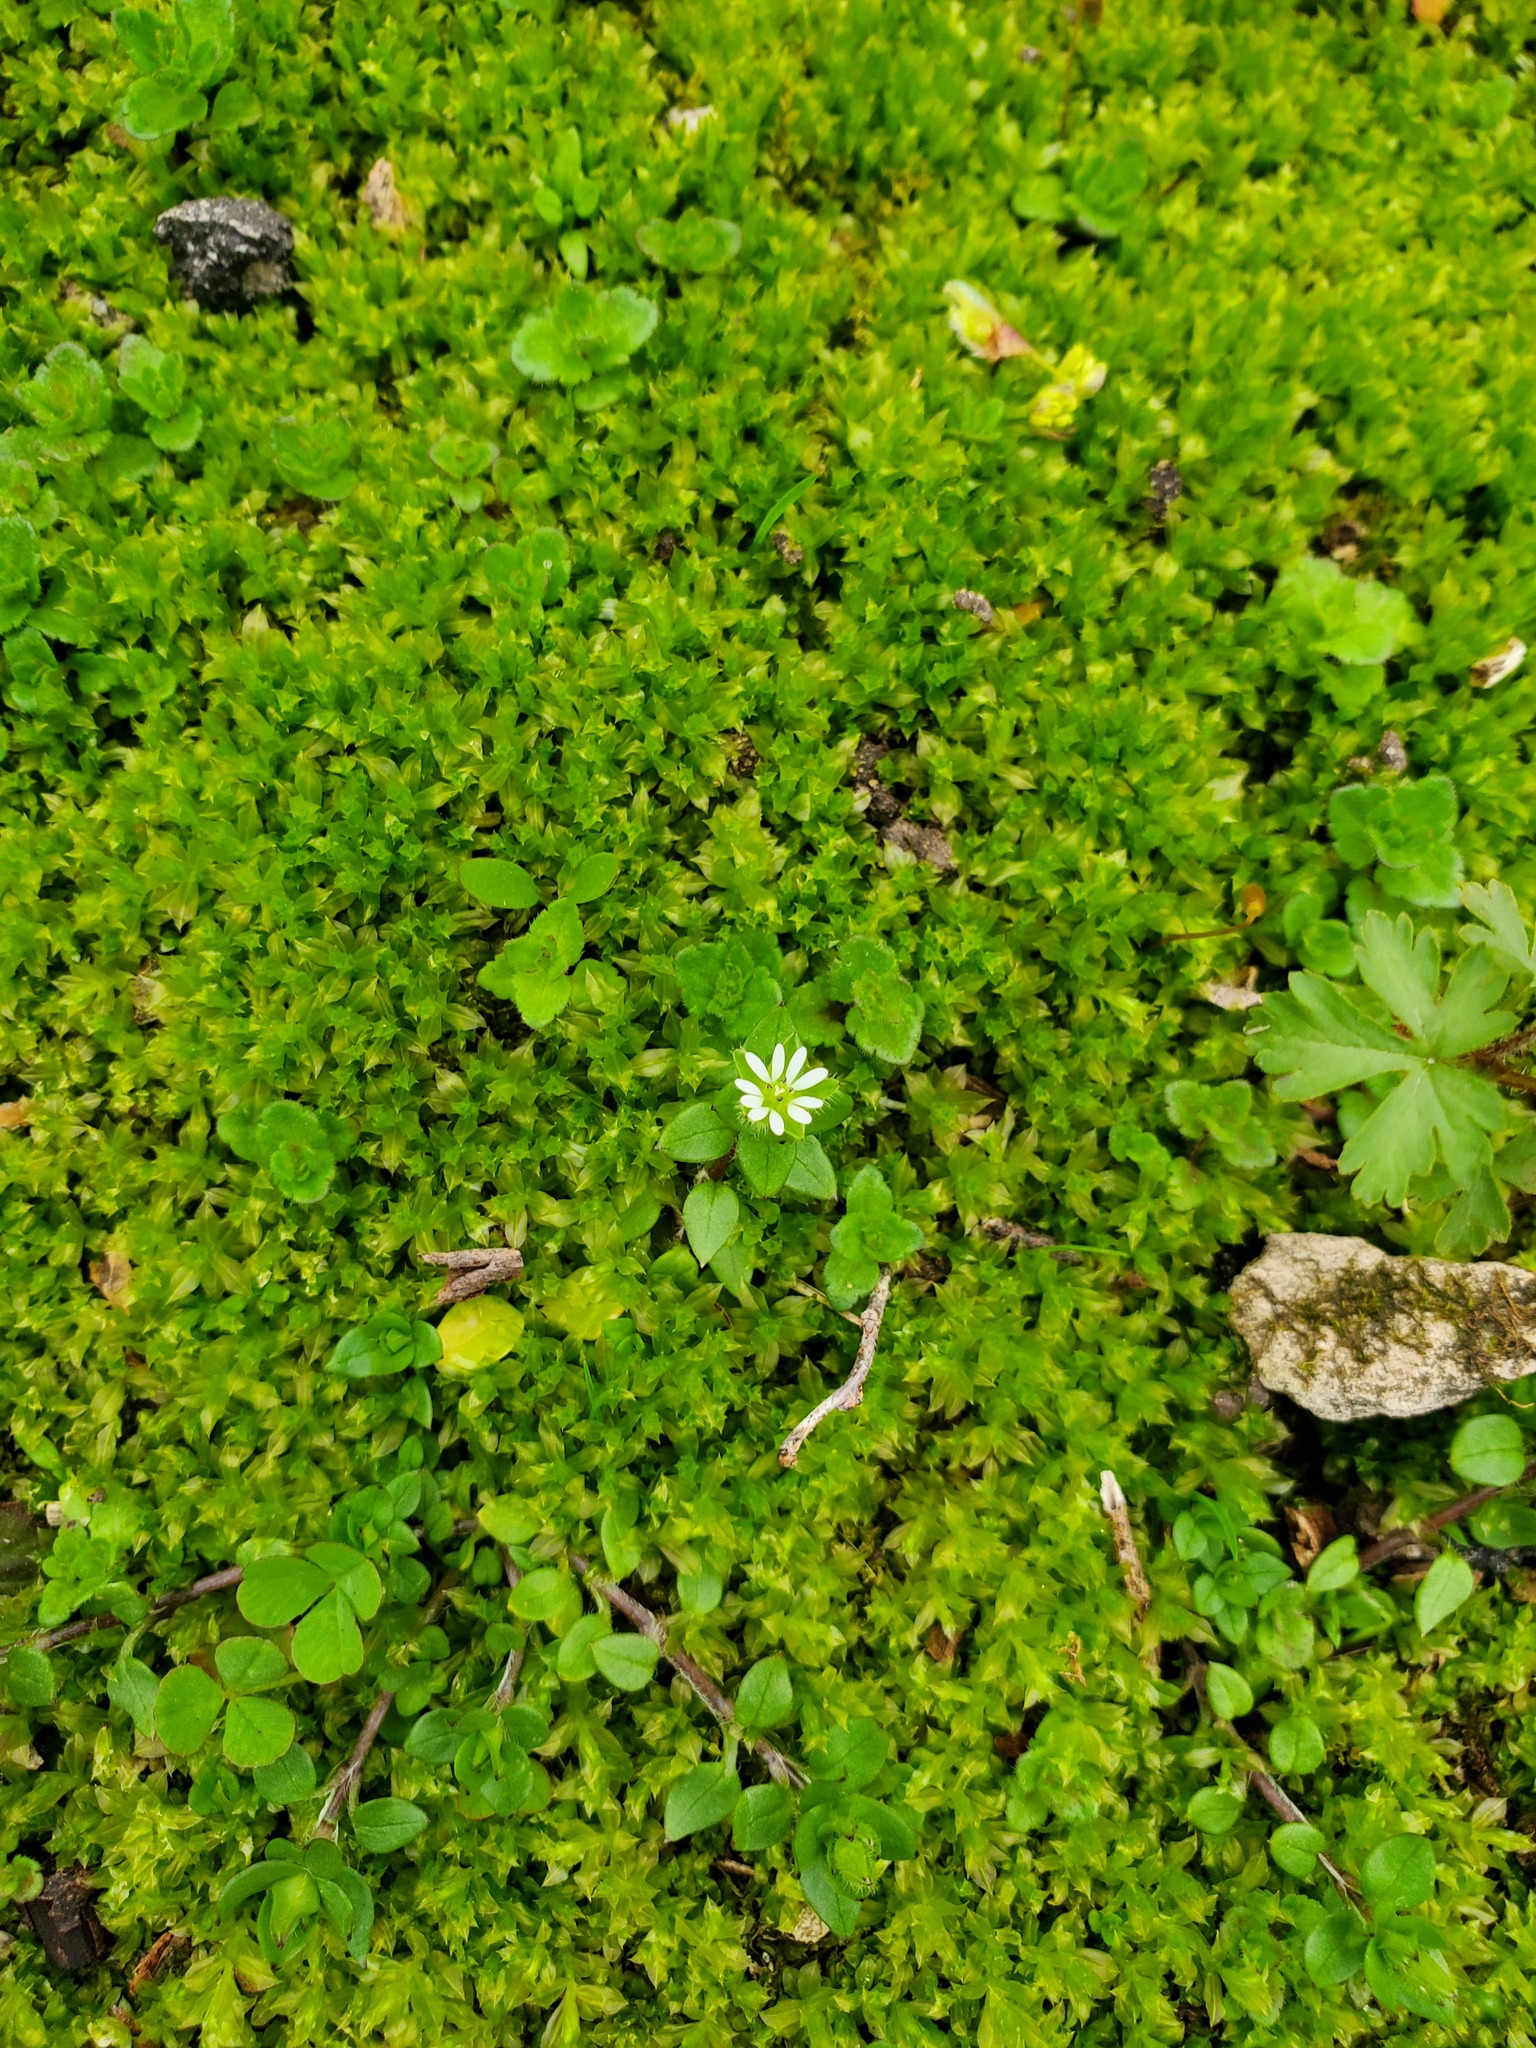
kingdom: Plantae
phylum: Tracheophyta
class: Magnoliopsida
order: Caryophyllales
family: Caryophyllaceae
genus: Stellaria
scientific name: Stellaria media
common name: Common chickweed
